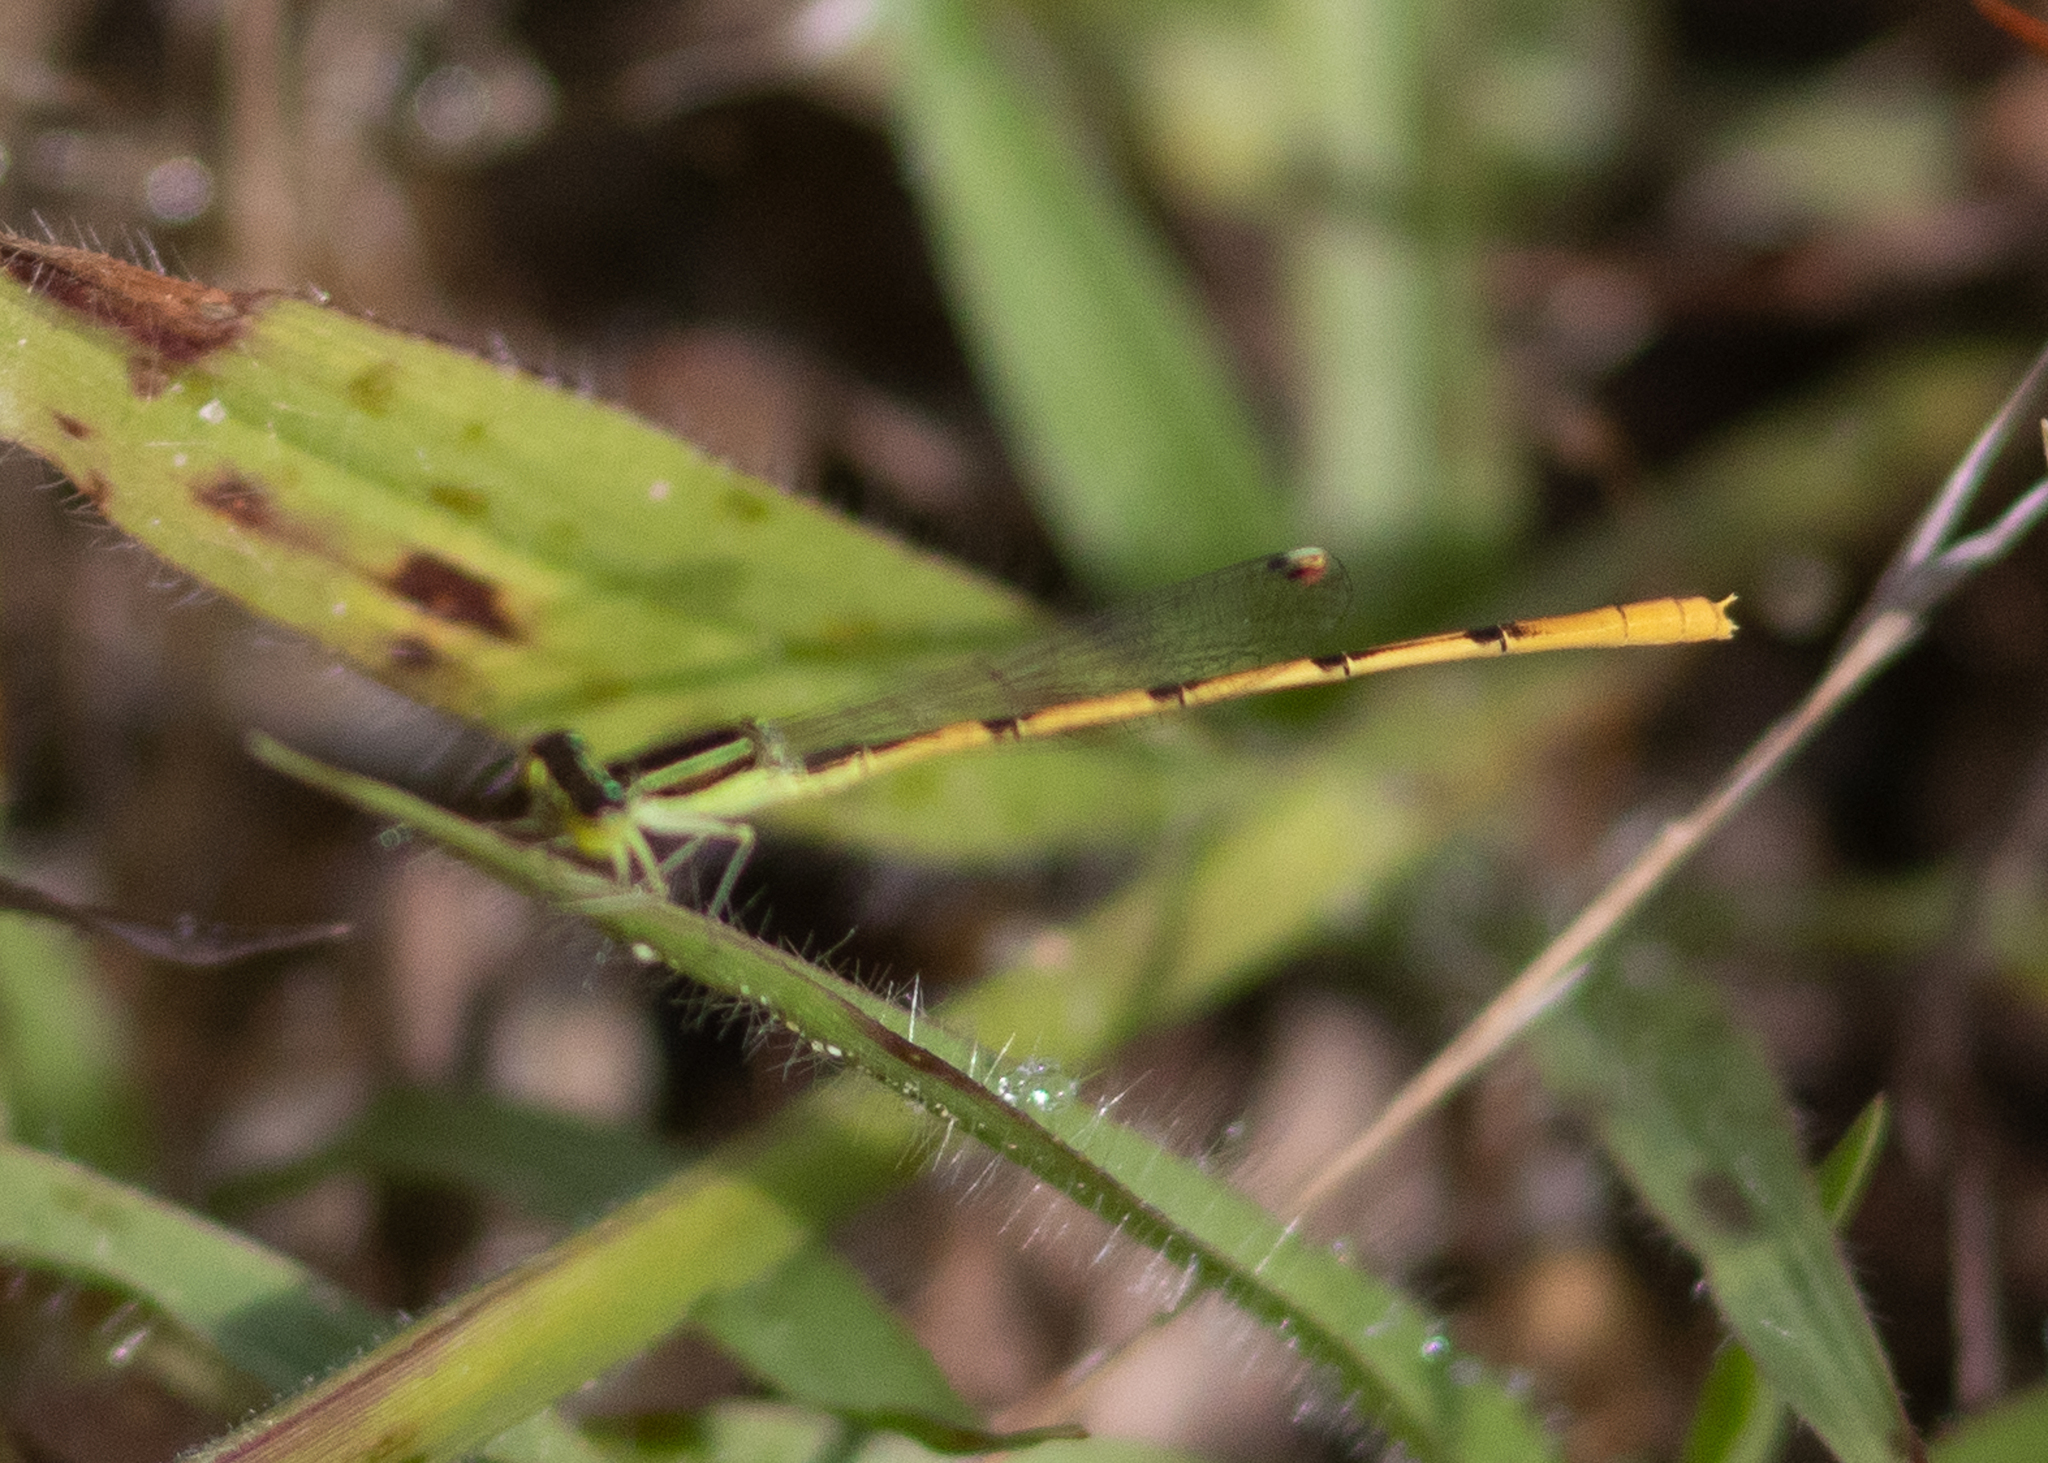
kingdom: Animalia
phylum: Arthropoda
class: Insecta
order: Odonata
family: Coenagrionidae
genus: Ischnura
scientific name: Ischnura hastata
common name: Citrine forktail
